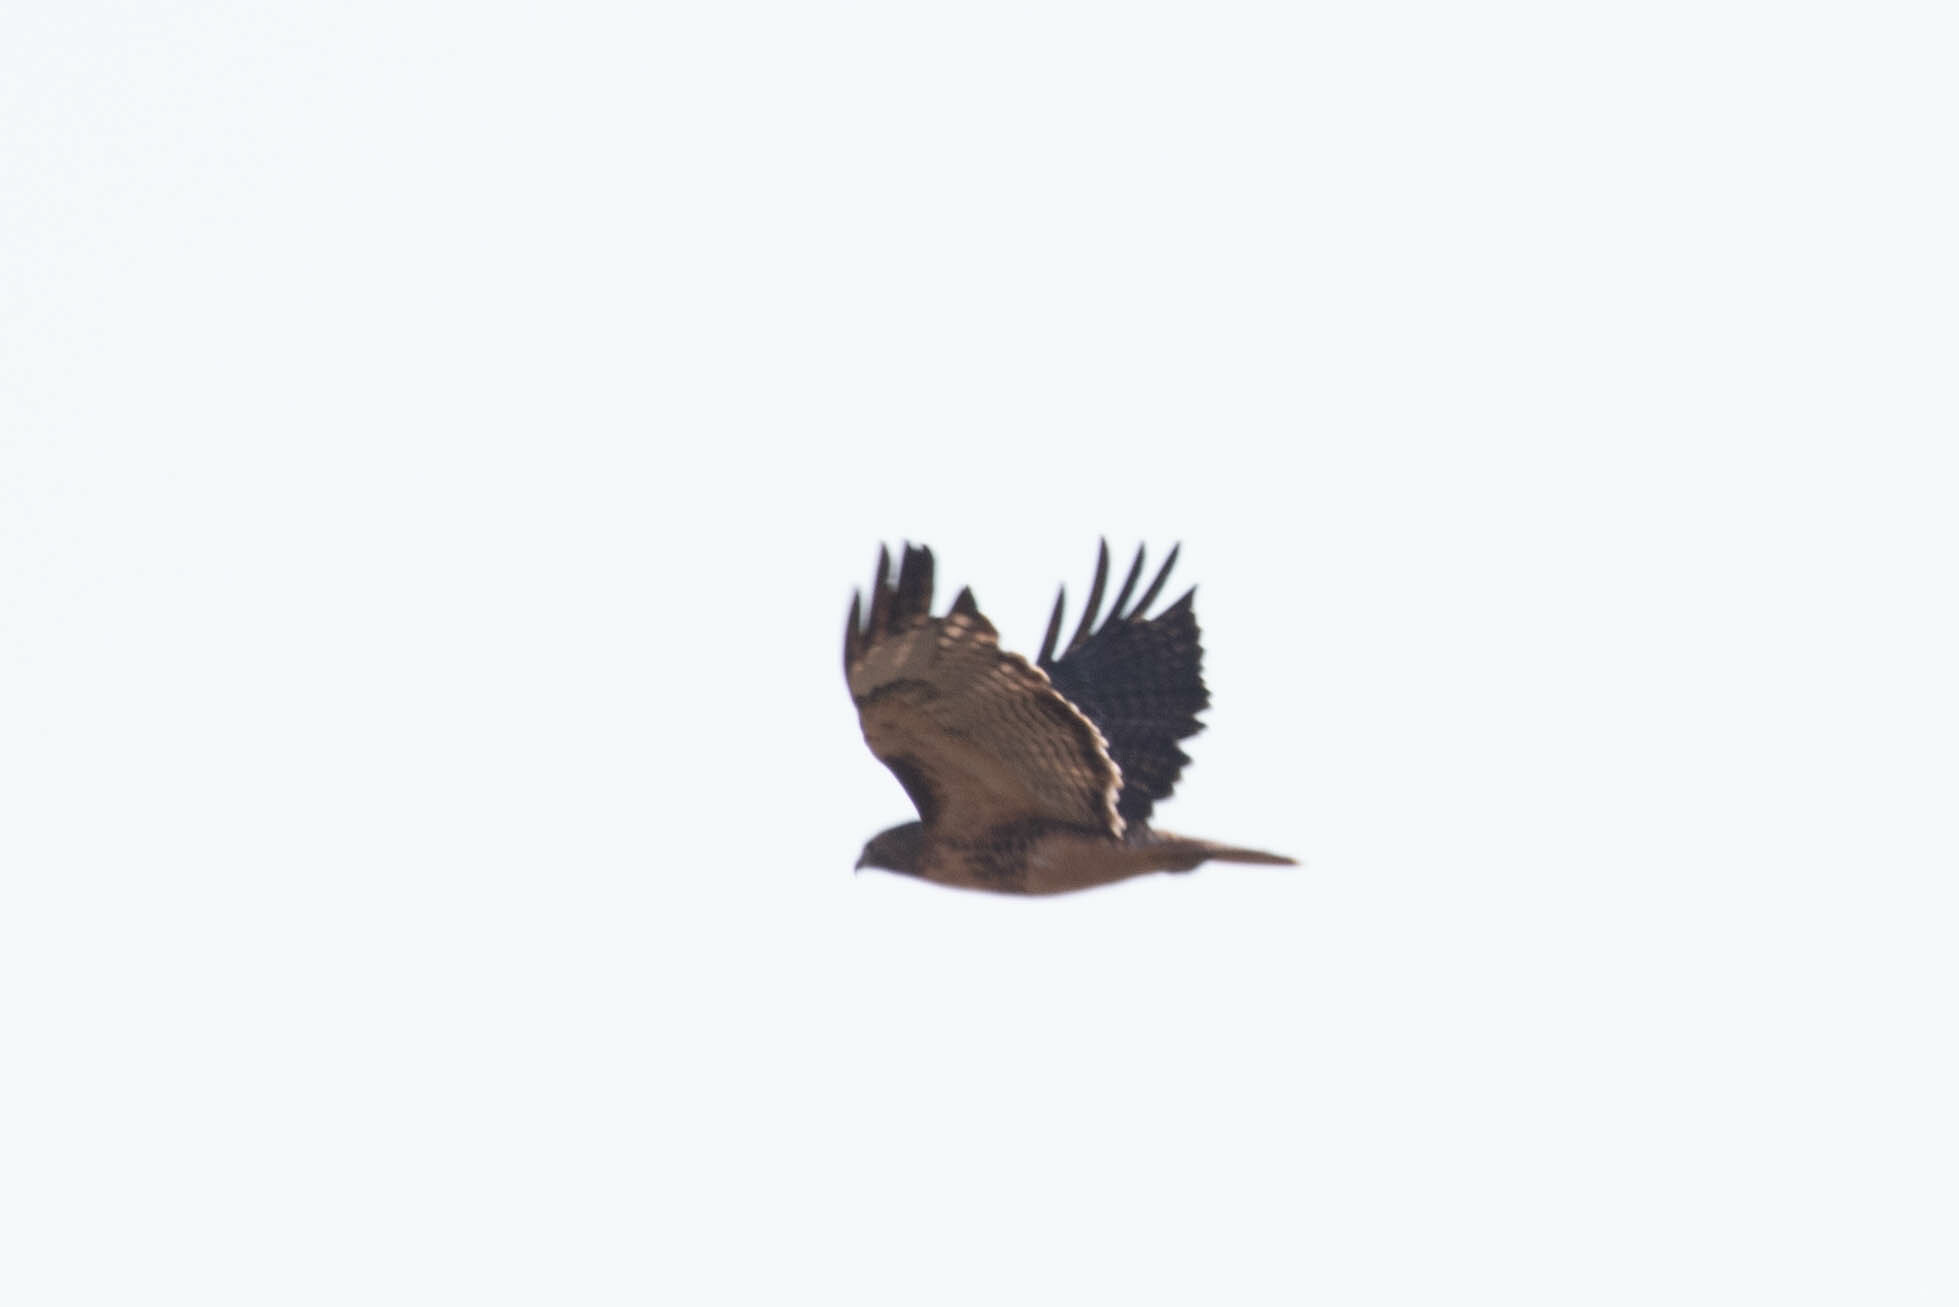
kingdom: Animalia
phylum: Chordata
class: Aves
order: Accipitriformes
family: Accipitridae
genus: Buteo
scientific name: Buteo jamaicensis
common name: Red-tailed hawk
